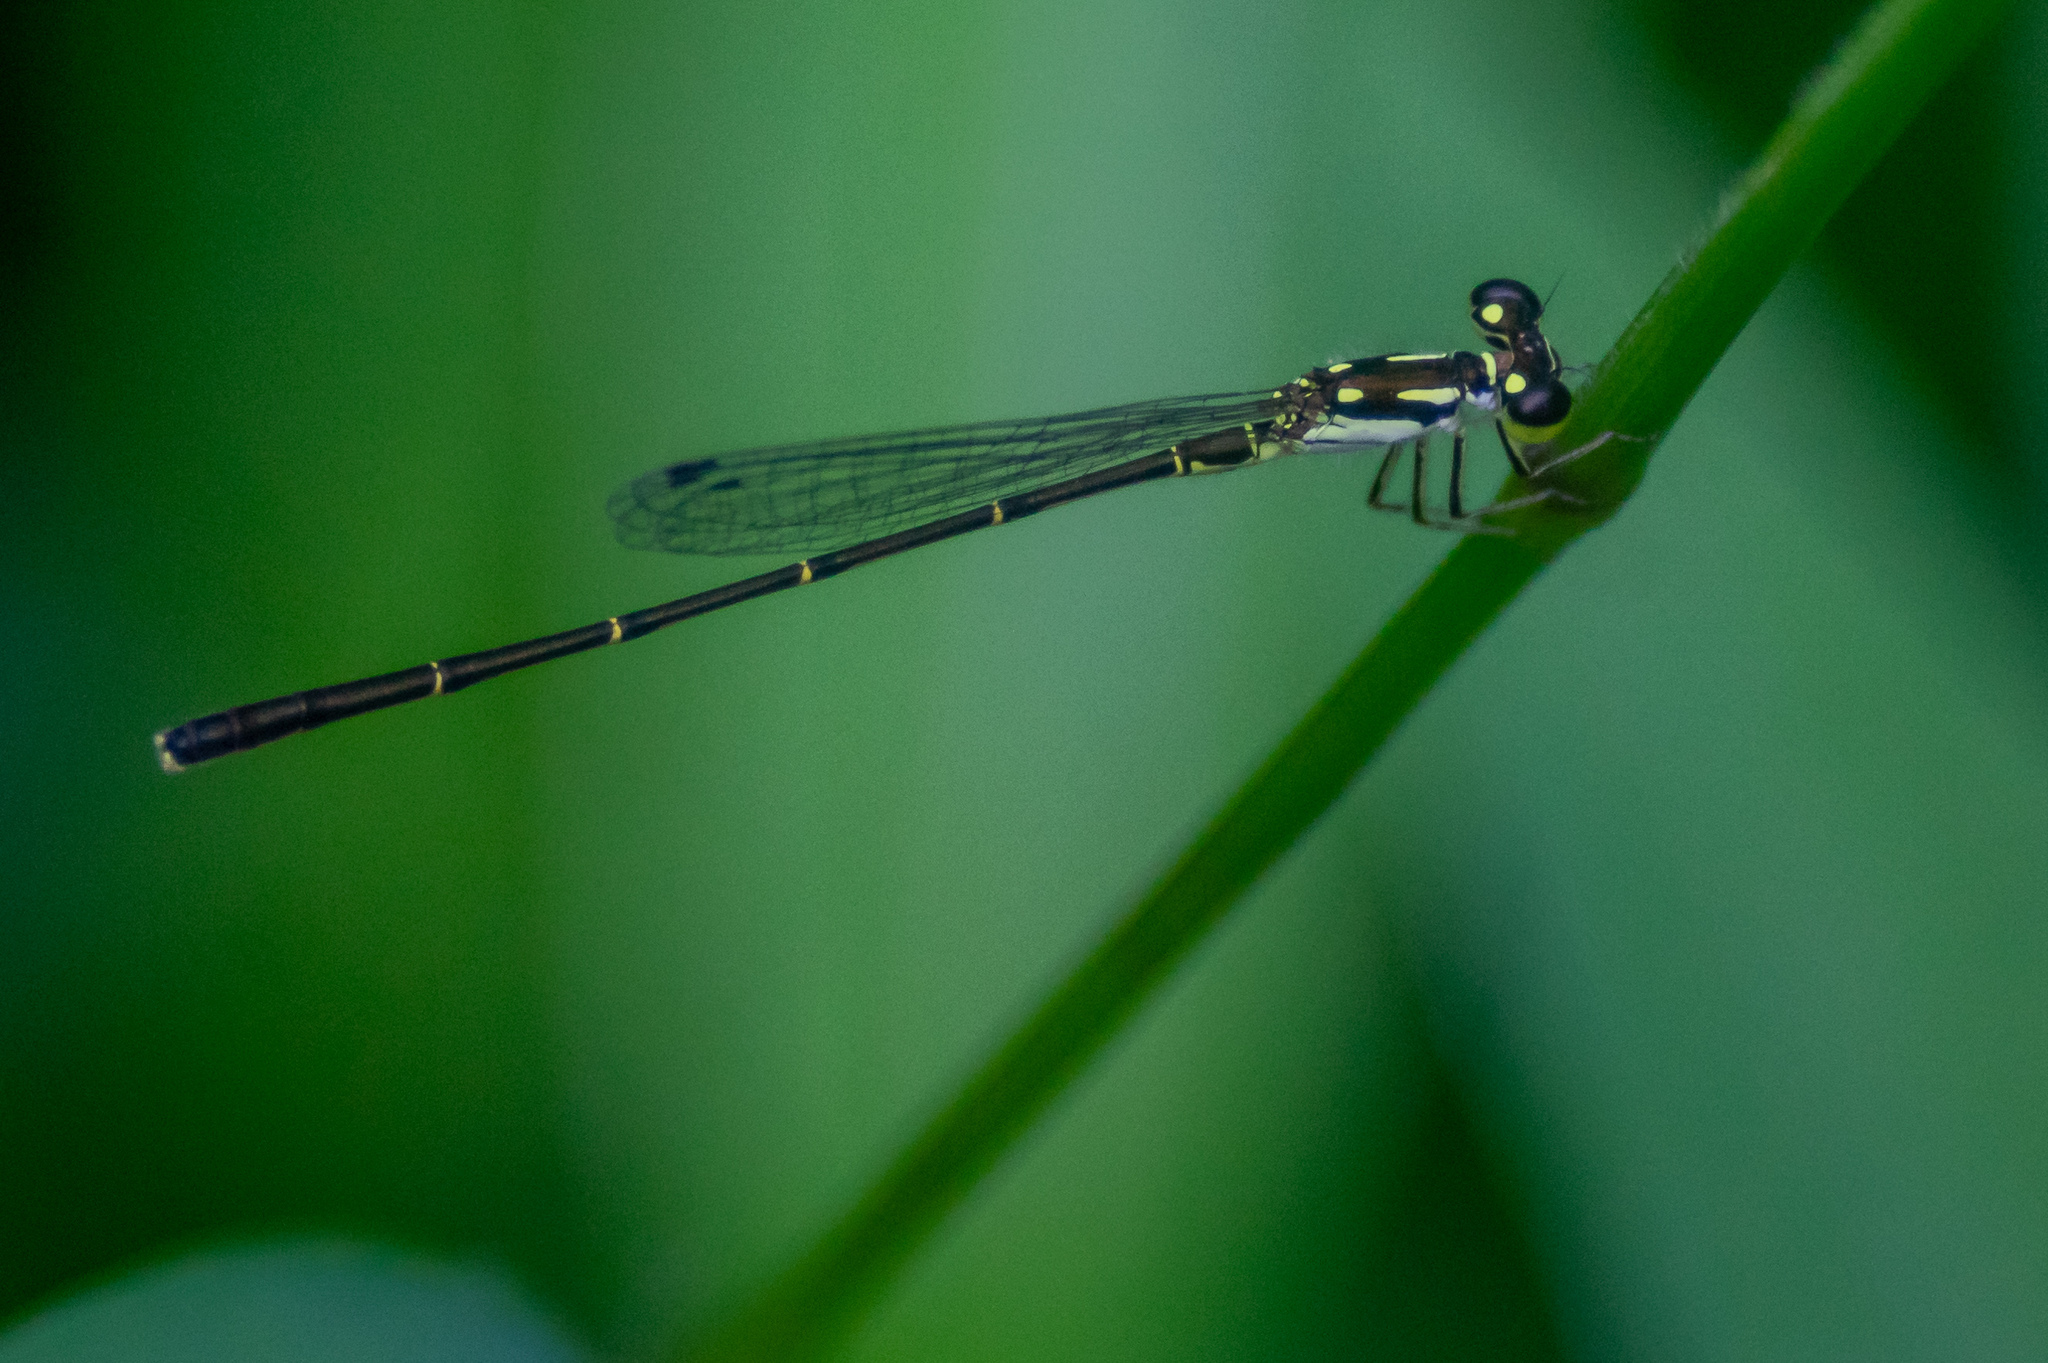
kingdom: Animalia
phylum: Arthropoda
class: Insecta
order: Odonata
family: Coenagrionidae
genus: Ischnura
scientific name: Ischnura posita
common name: Fragile forktail
